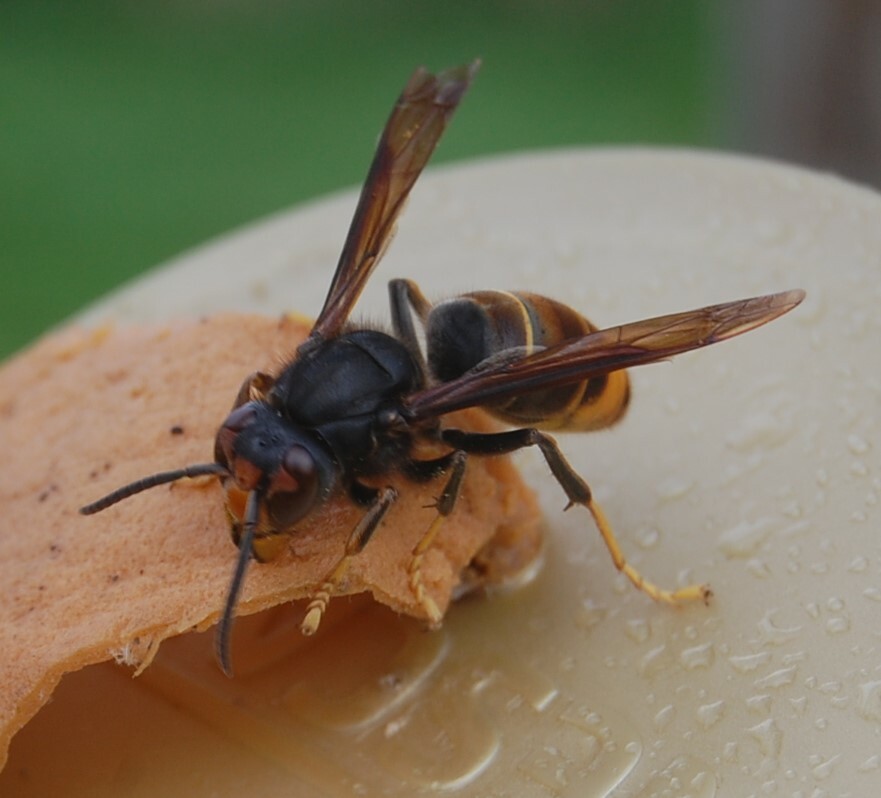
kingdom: Animalia
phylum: Arthropoda
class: Insecta
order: Hymenoptera
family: Vespidae
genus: Vespa
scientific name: Vespa velutina
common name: Asian hornet
